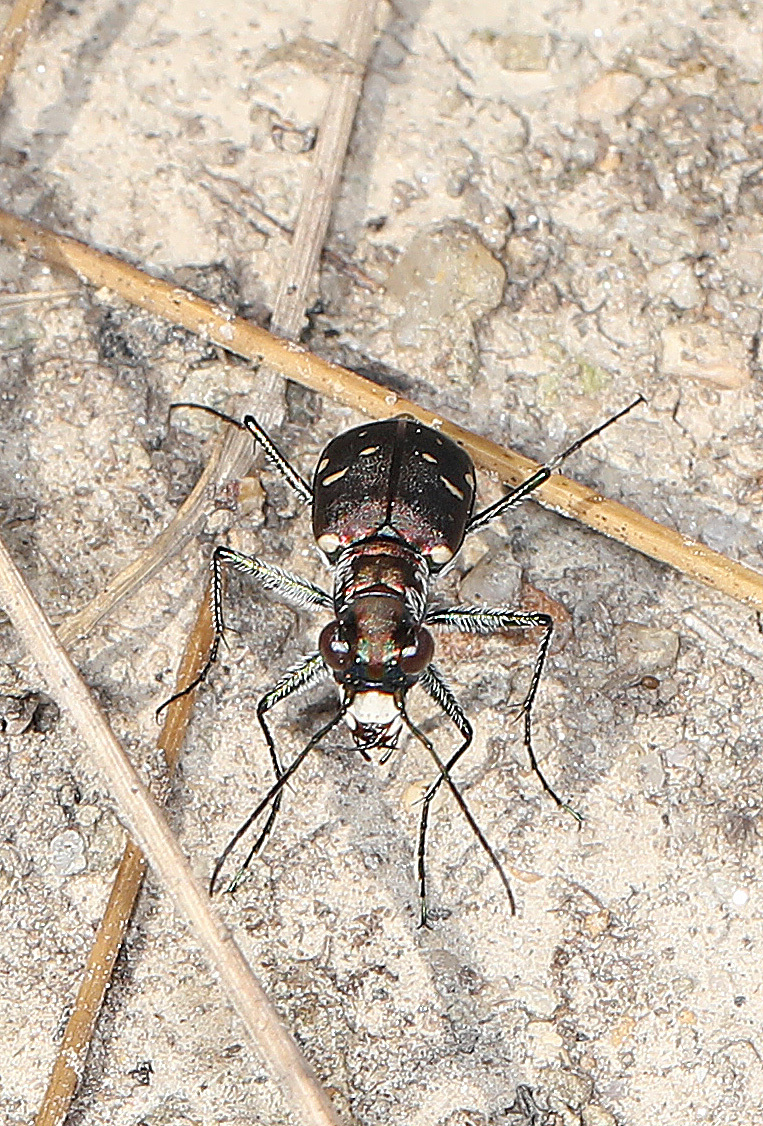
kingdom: Animalia
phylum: Arthropoda
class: Insecta
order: Coleoptera
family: Carabidae
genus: Cicindela
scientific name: Cicindela rufiventris
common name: Eastern red-bellied tiger beetle
